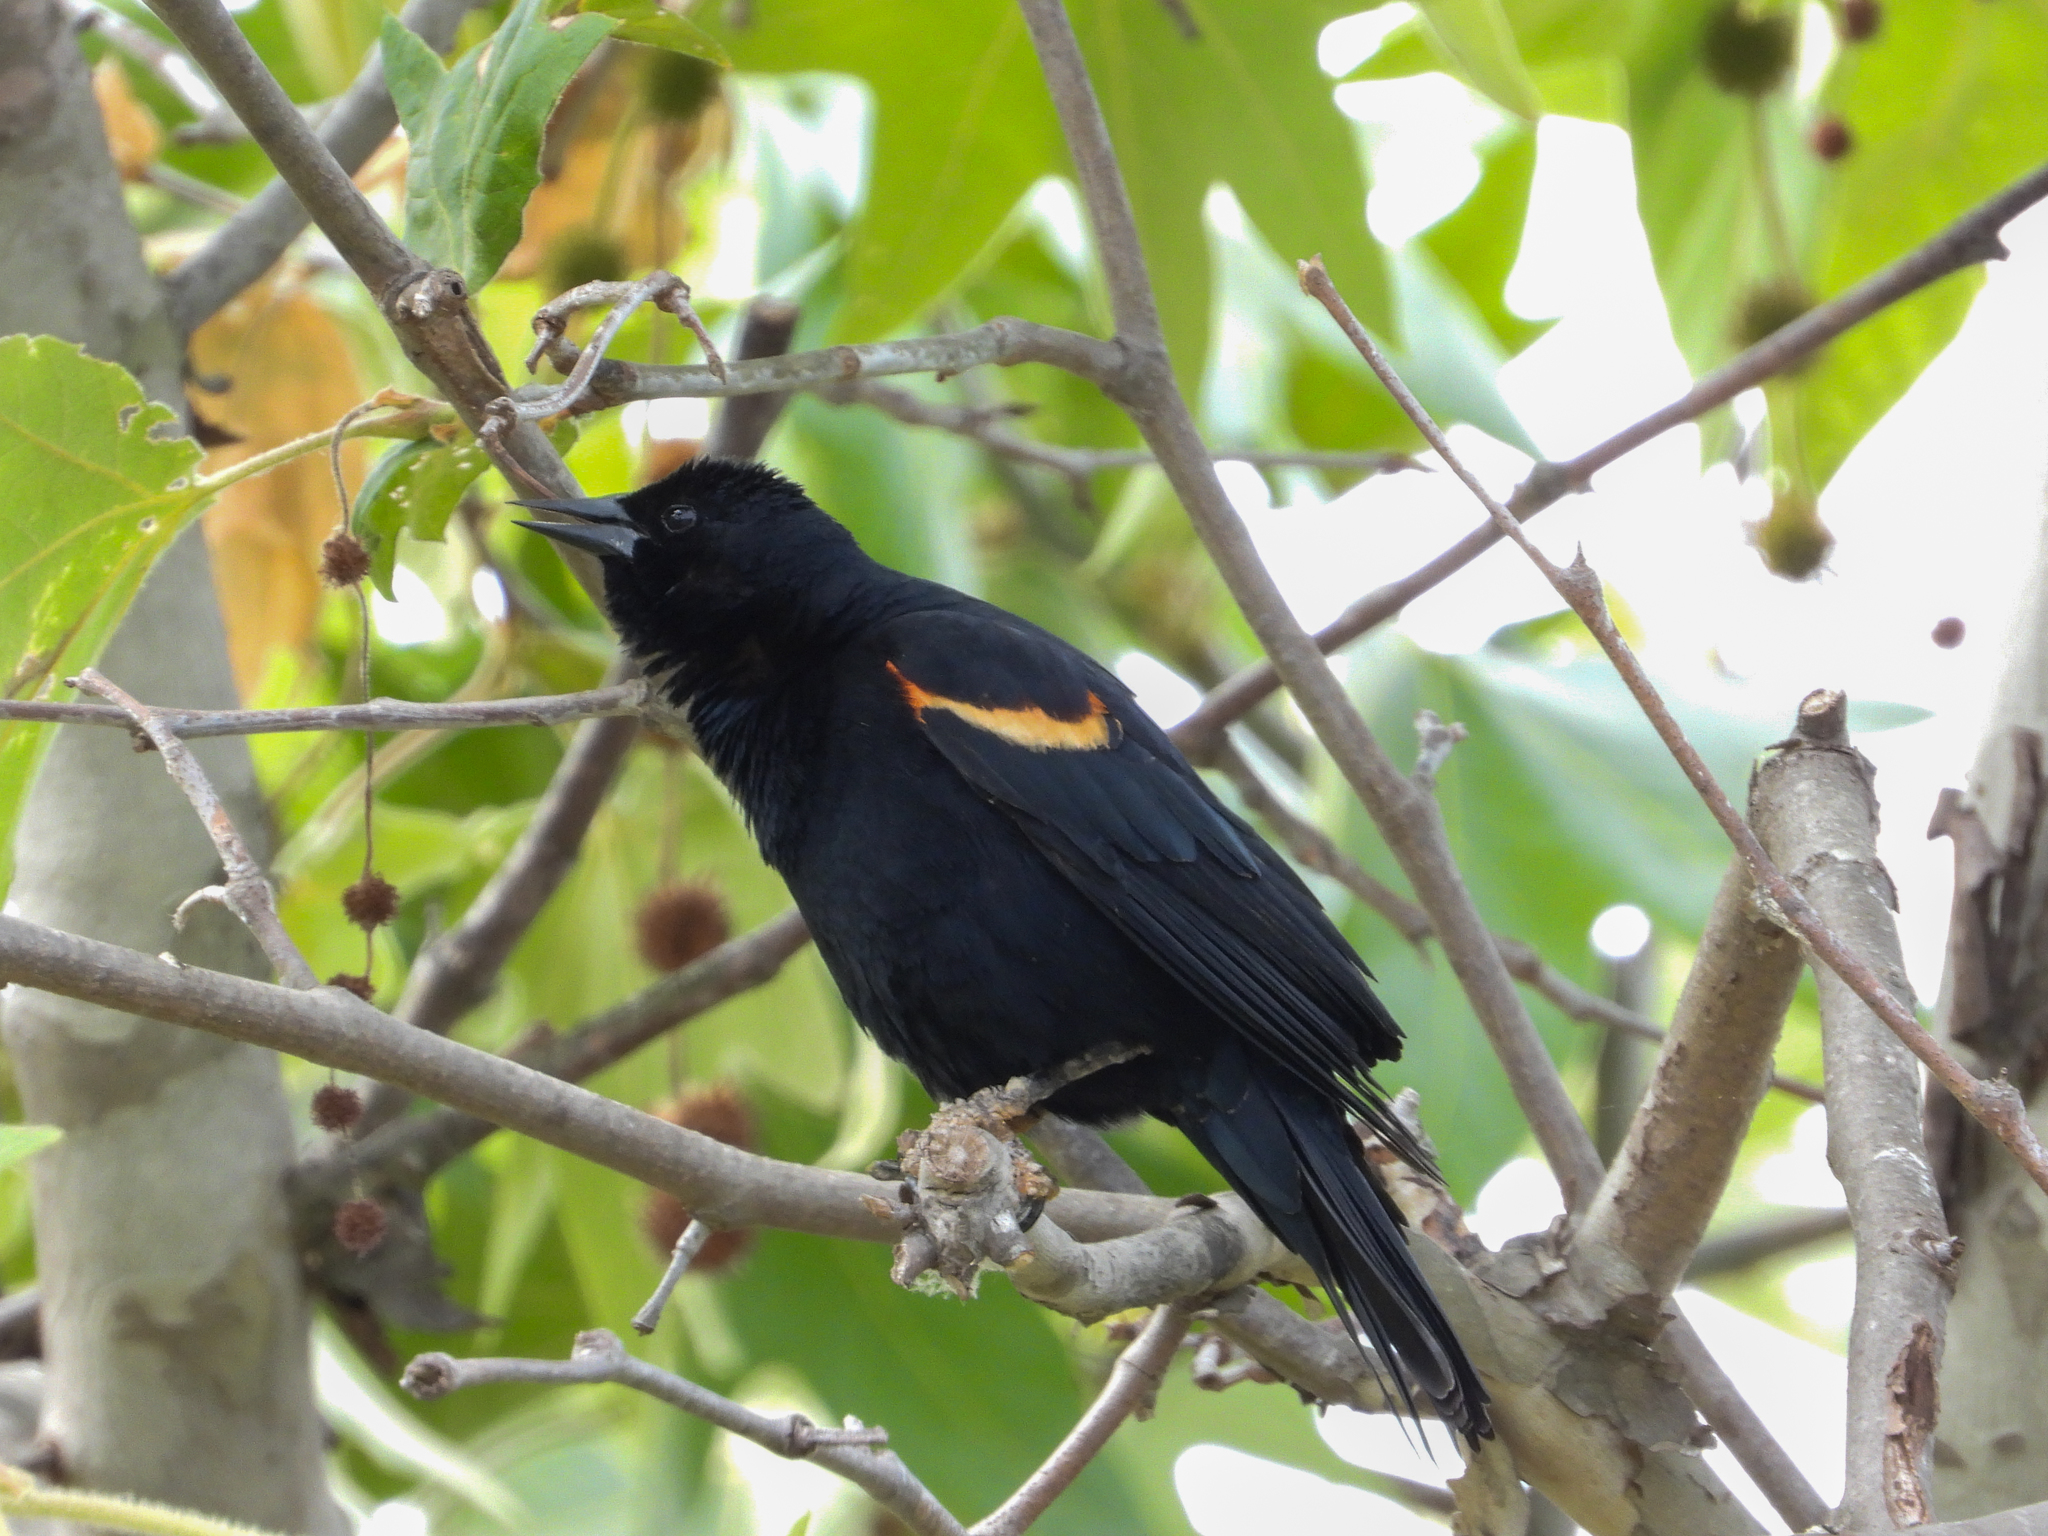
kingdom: Animalia
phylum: Chordata
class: Aves
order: Passeriformes
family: Icteridae
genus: Agelaius
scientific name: Agelaius phoeniceus
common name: Red-winged blackbird
